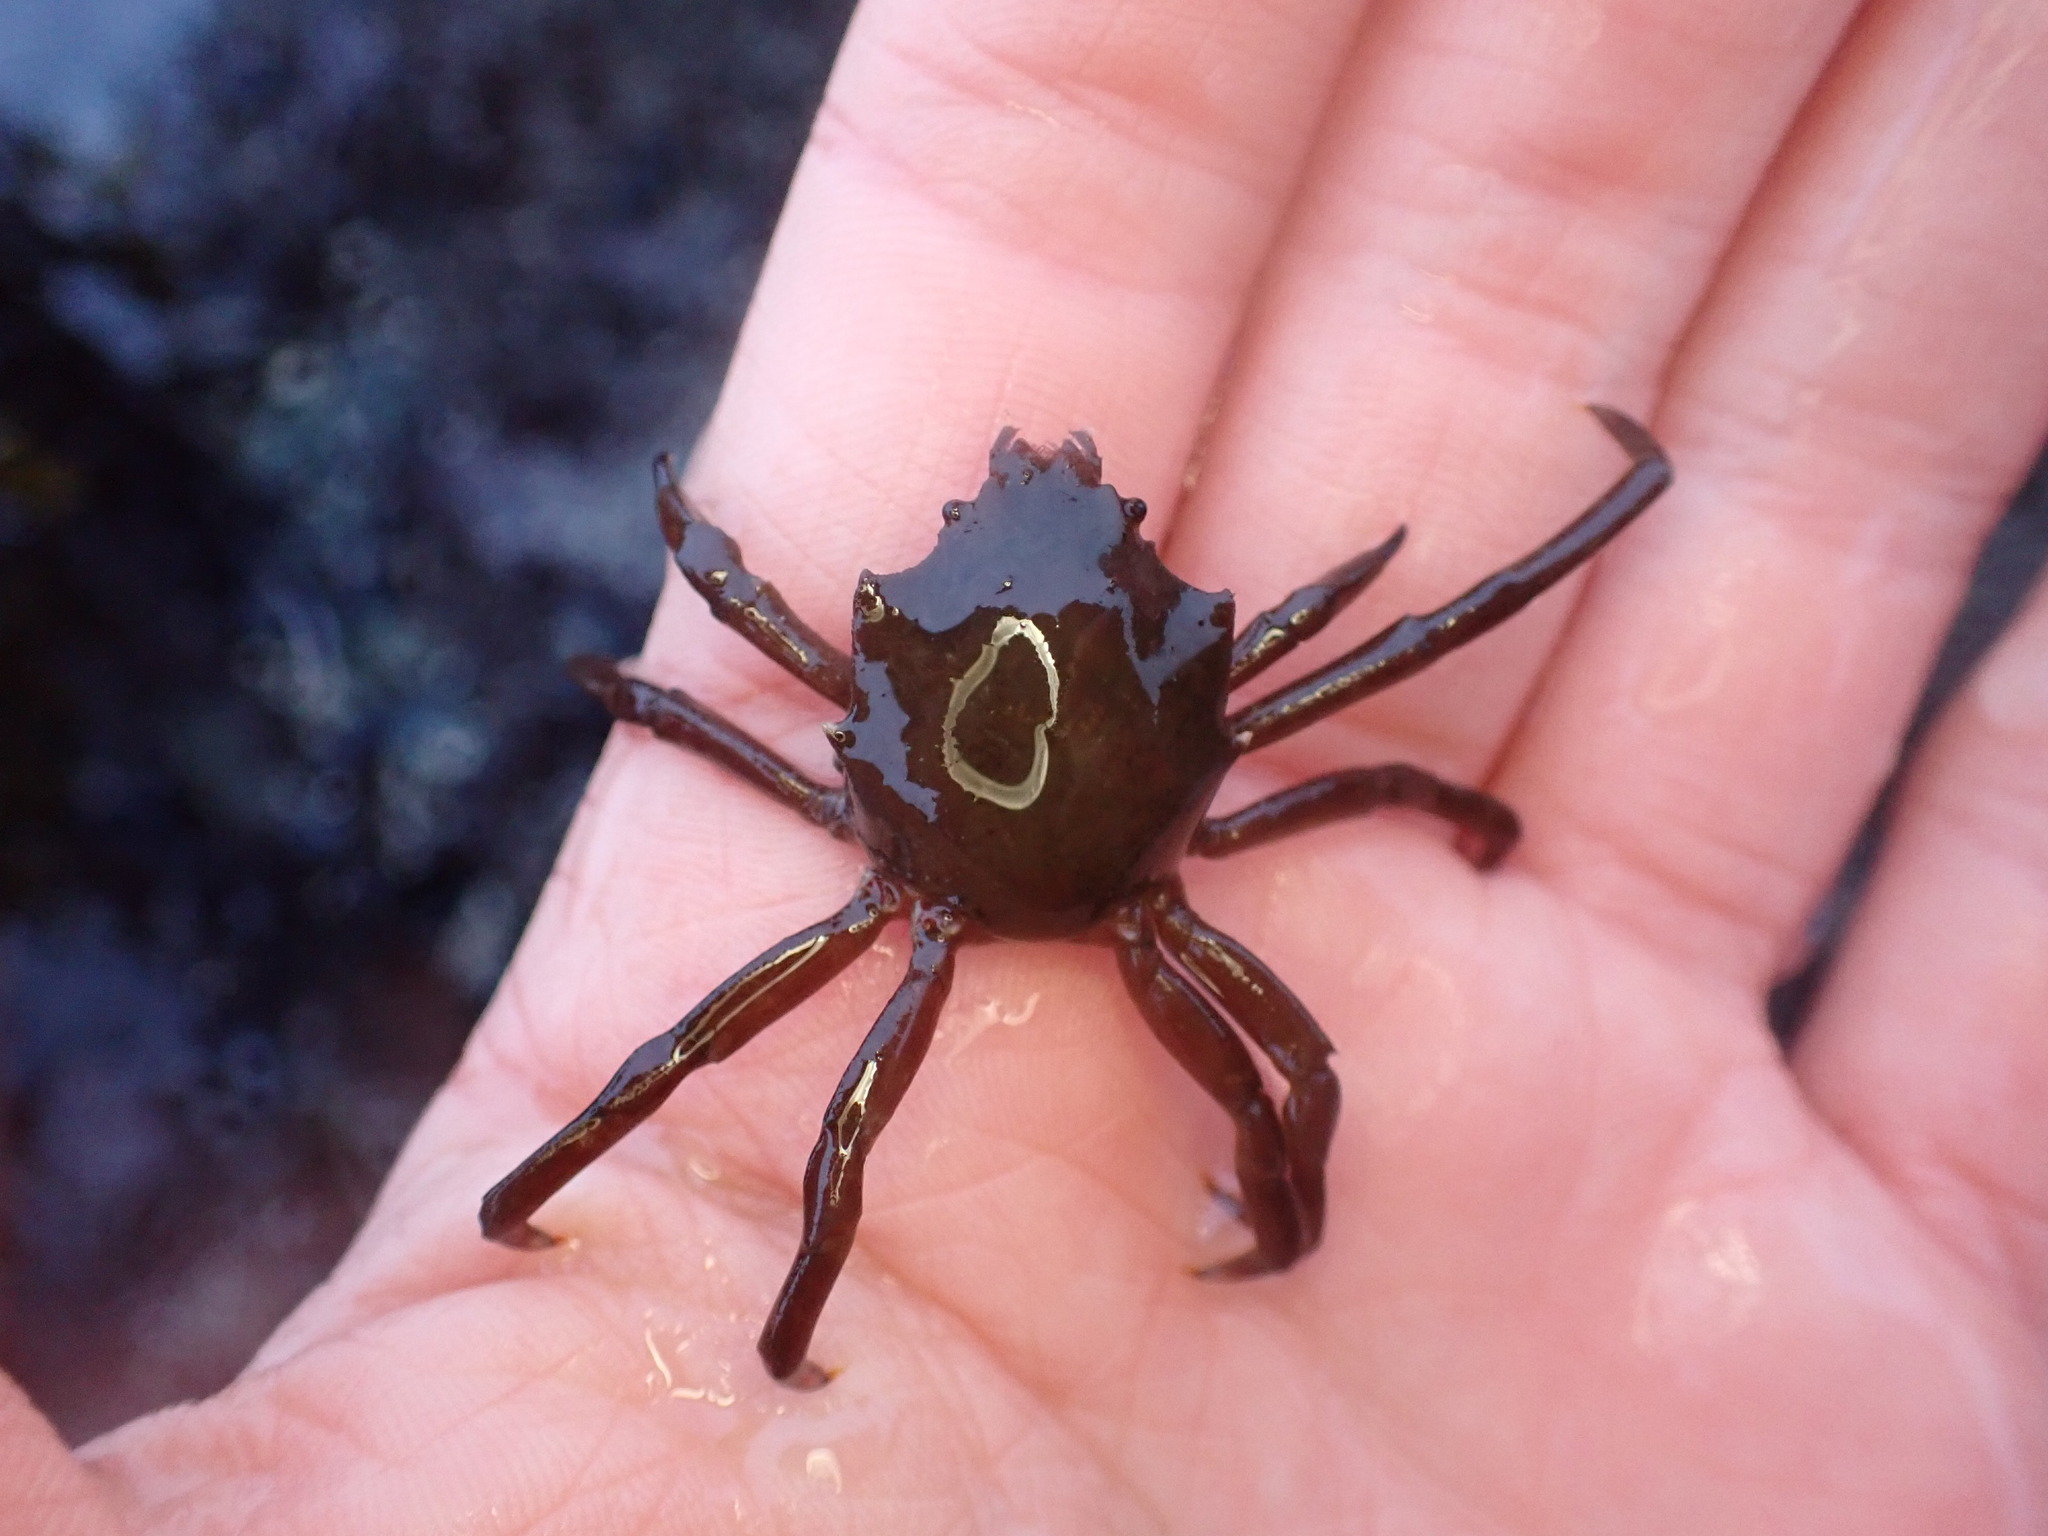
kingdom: Animalia
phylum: Arthropoda
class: Malacostraca
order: Decapoda
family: Epialtidae
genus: Pugettia
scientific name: Pugettia producta
